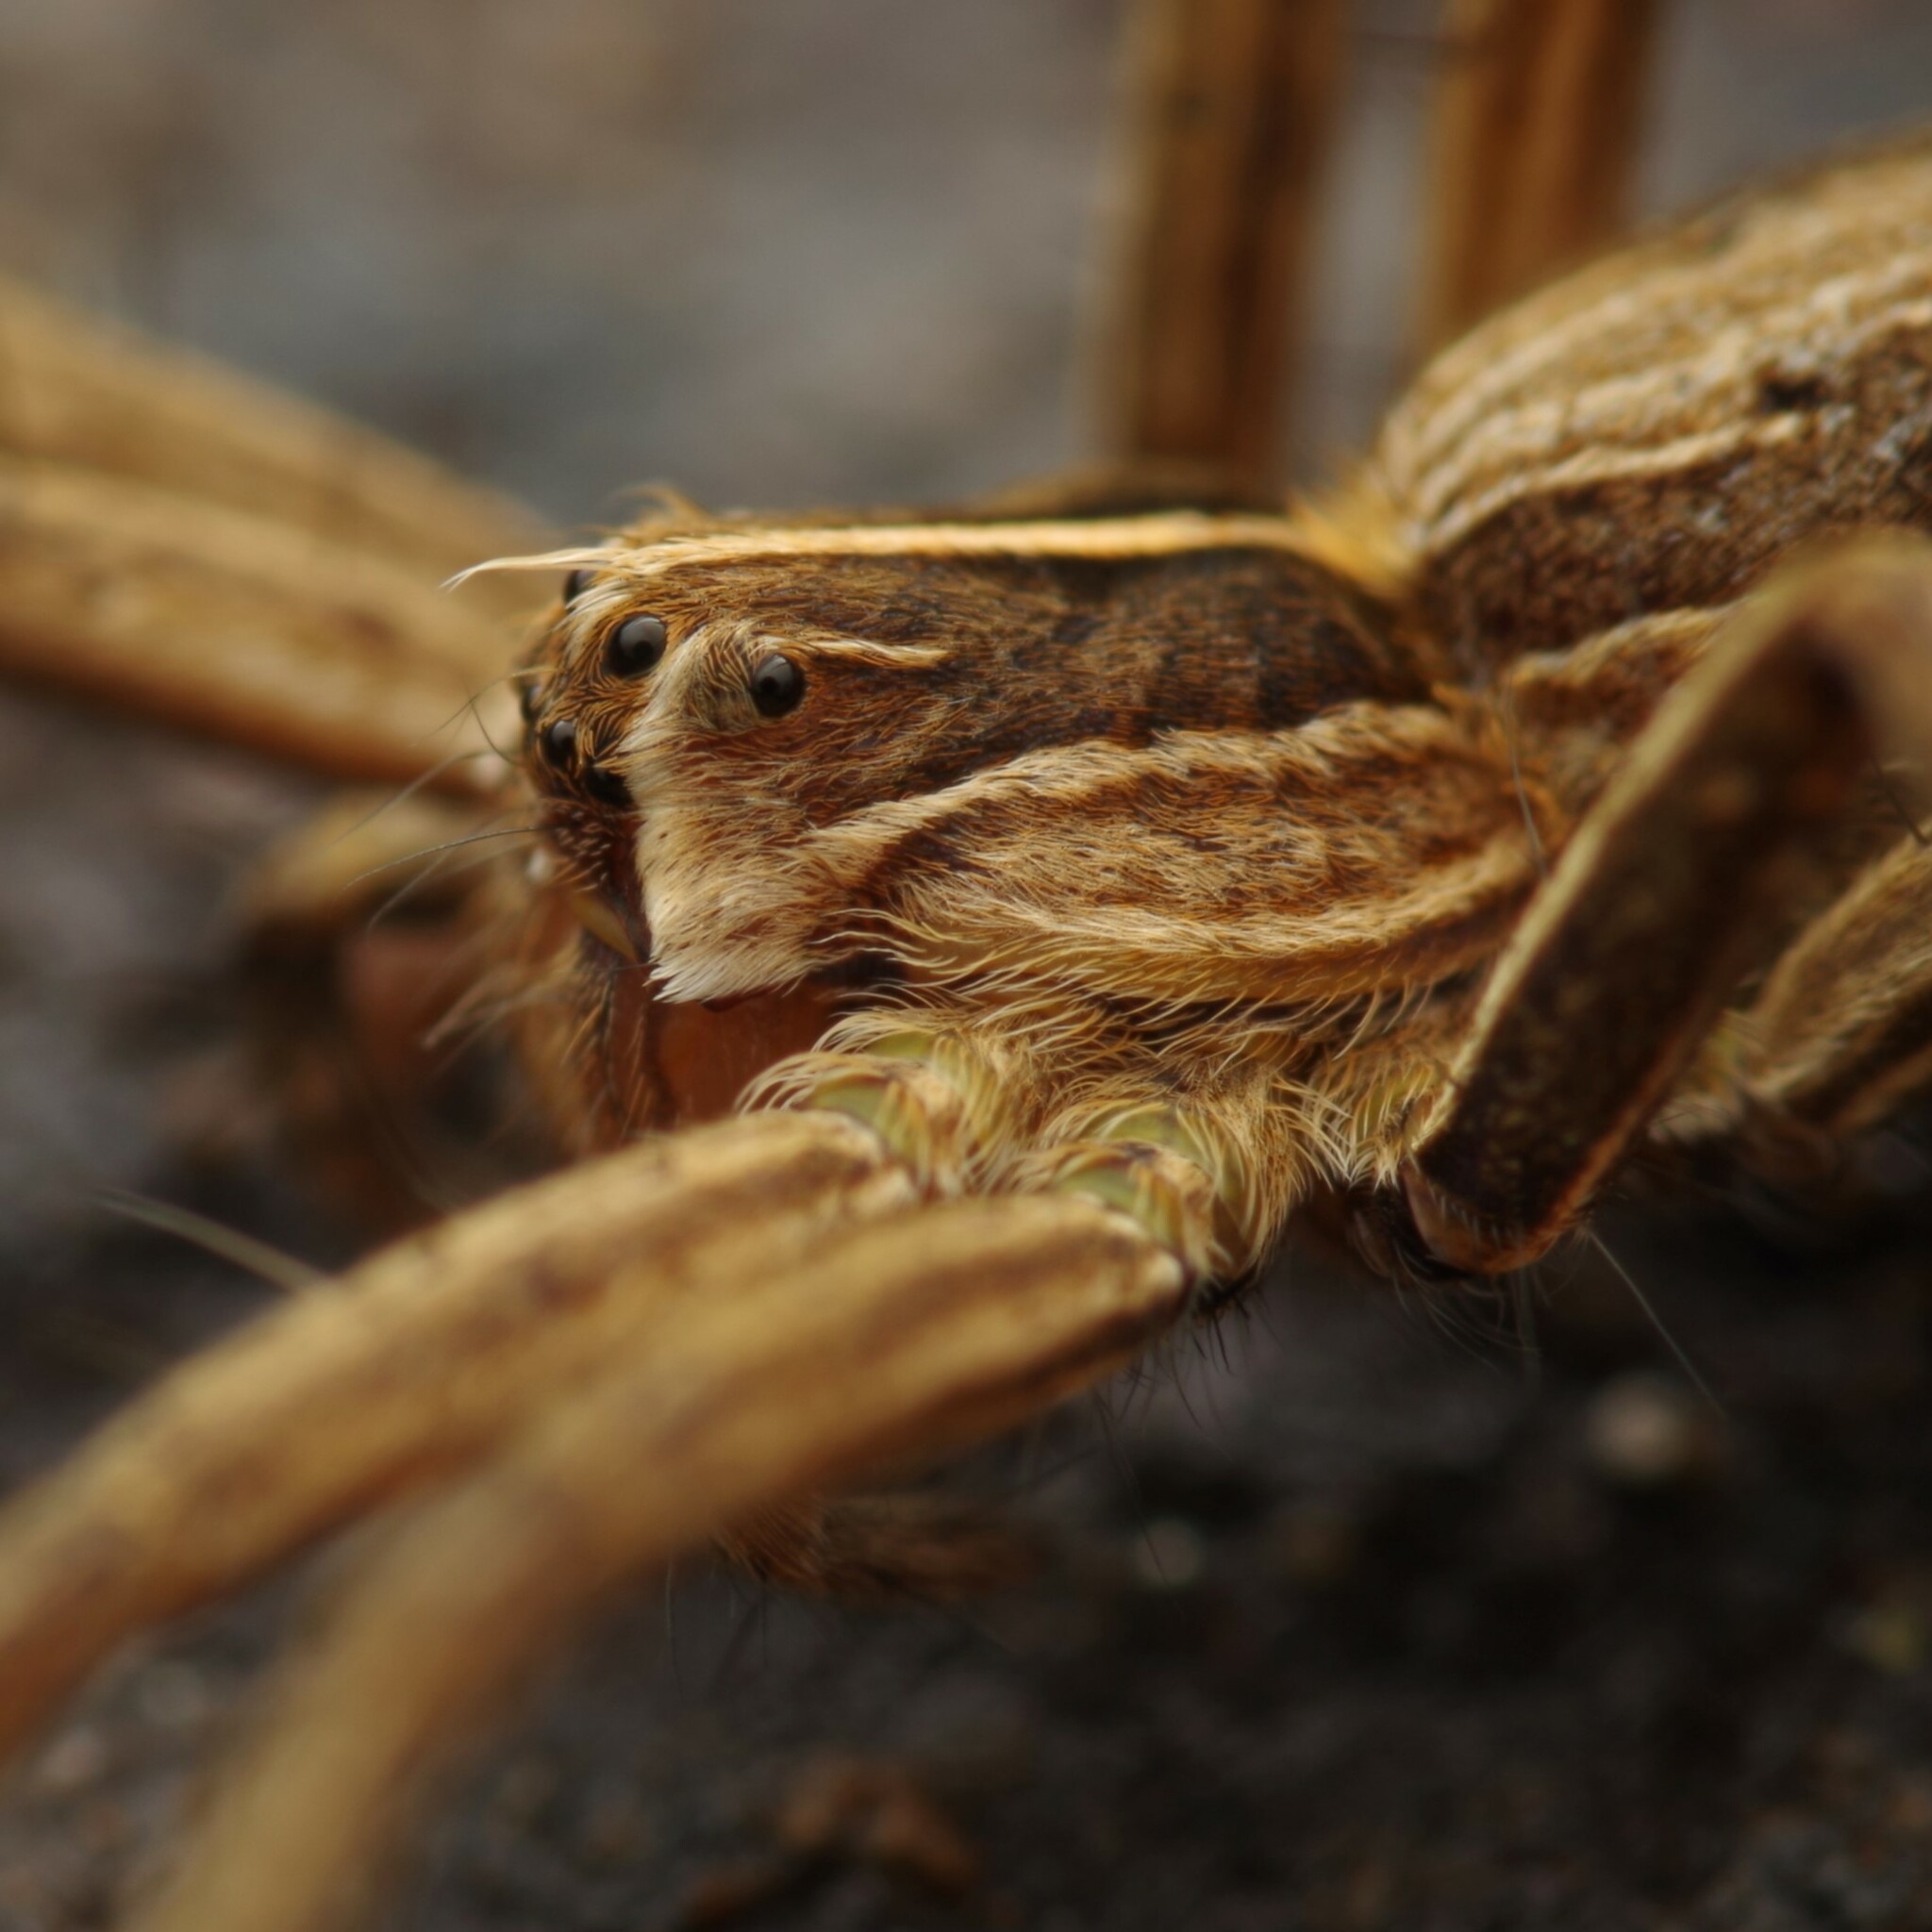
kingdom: Animalia
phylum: Arthropoda
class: Arachnida
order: Araneae
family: Pisauridae
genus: Pisaura
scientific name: Pisaura mirabilis
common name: Tent spider
